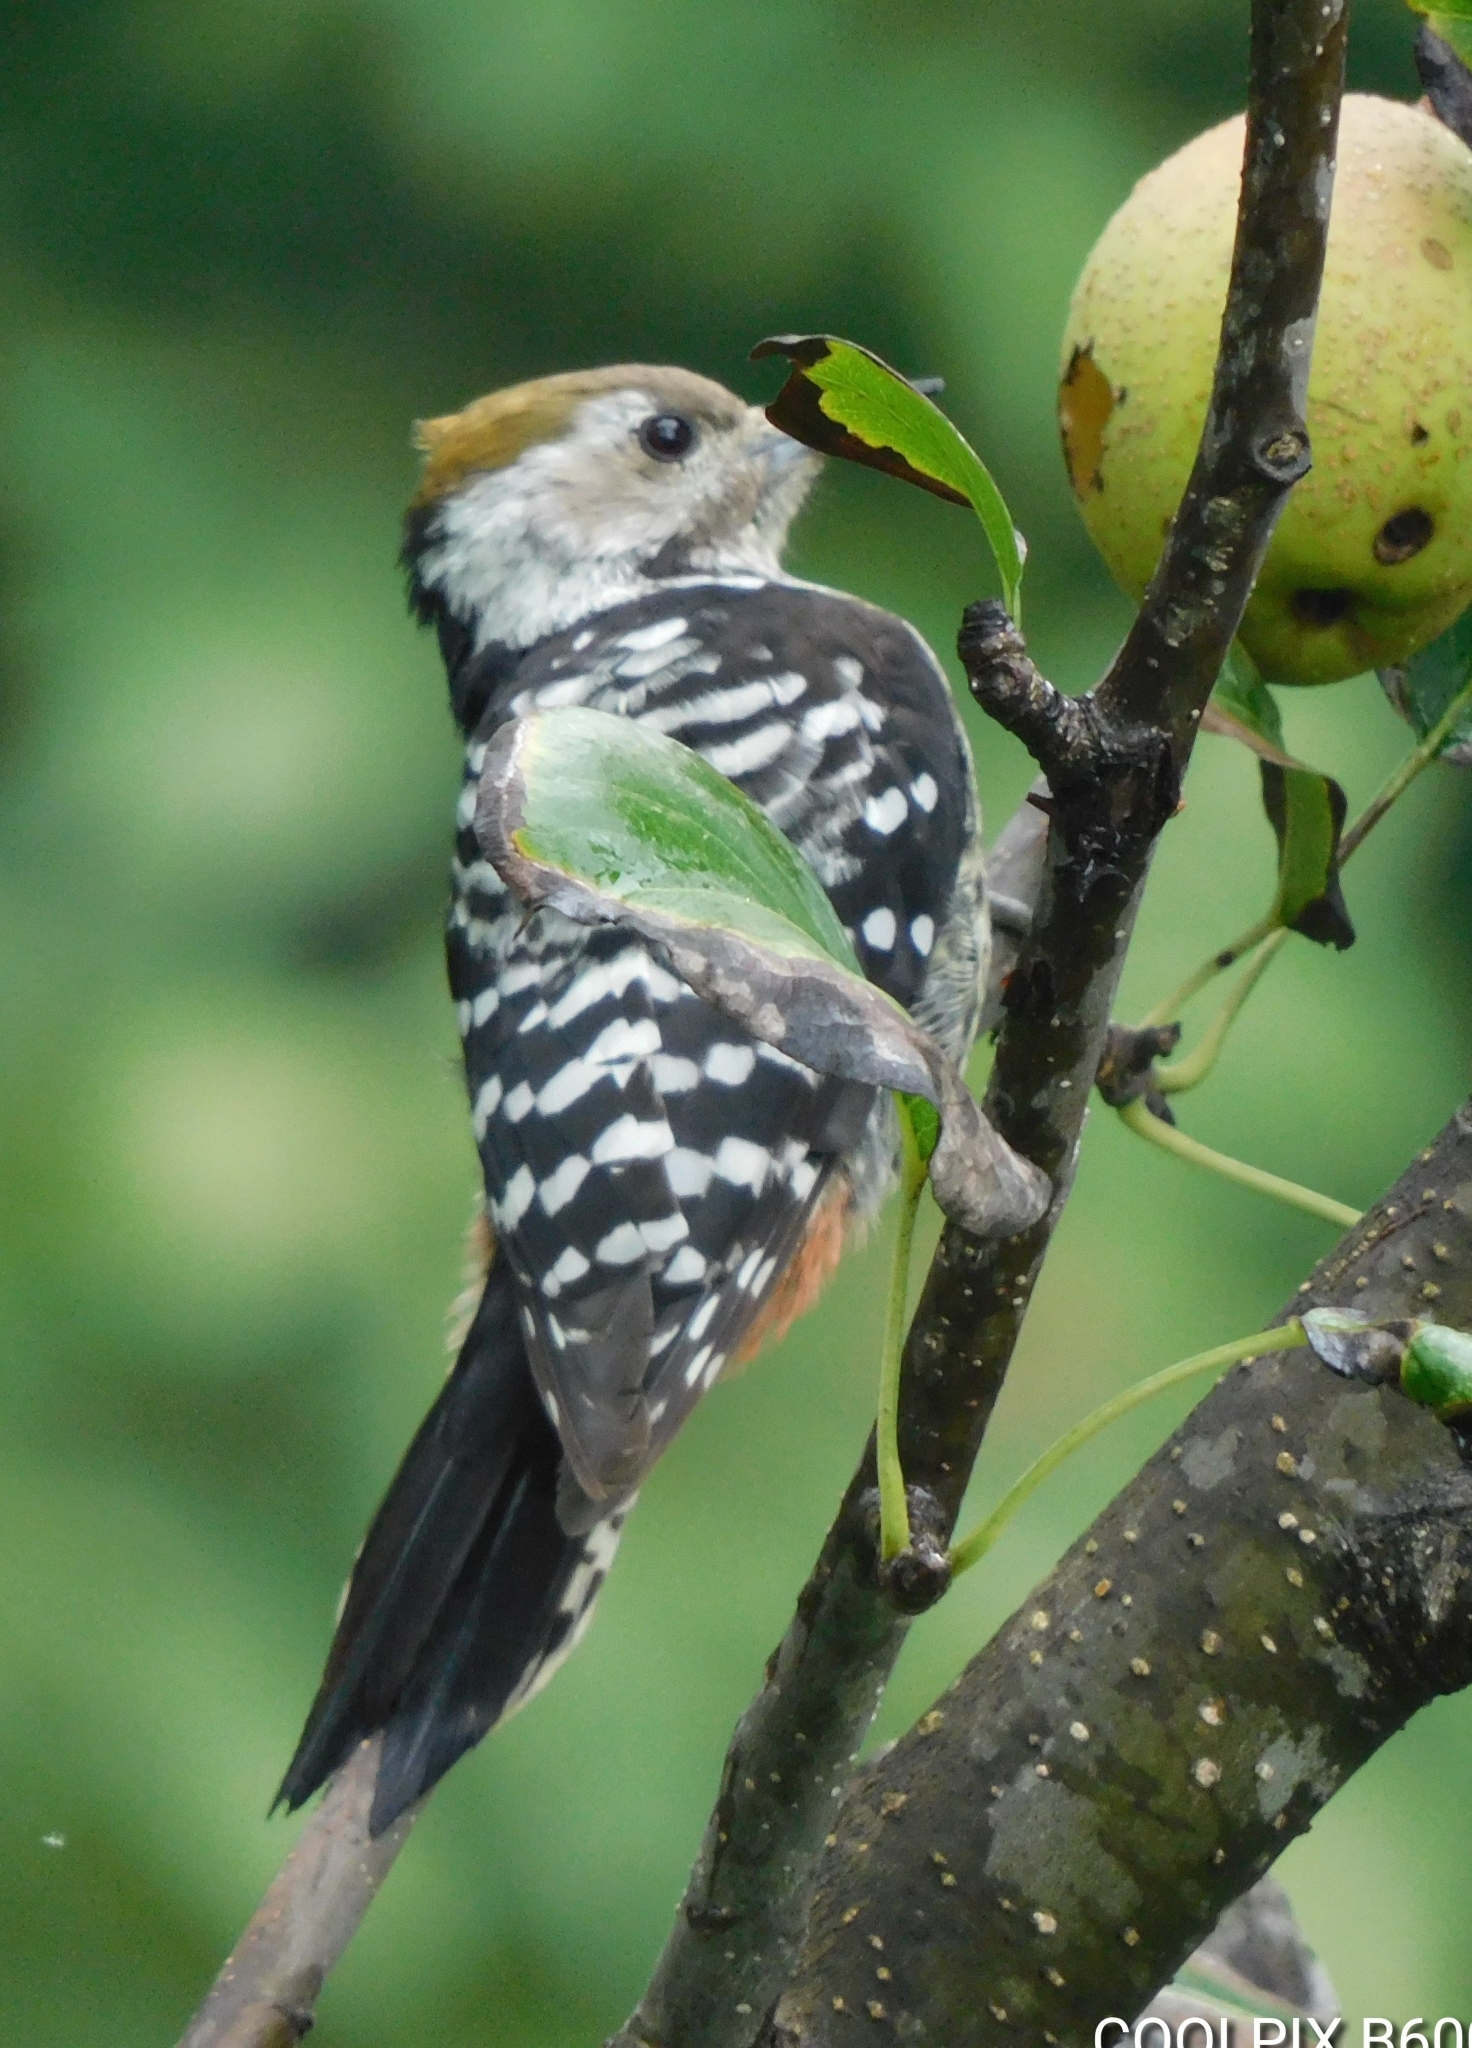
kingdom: Animalia
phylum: Chordata
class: Aves
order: Piciformes
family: Picidae
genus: Dendrocoptes
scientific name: Dendrocoptes auriceps
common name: Brown-fronted woodpecker
